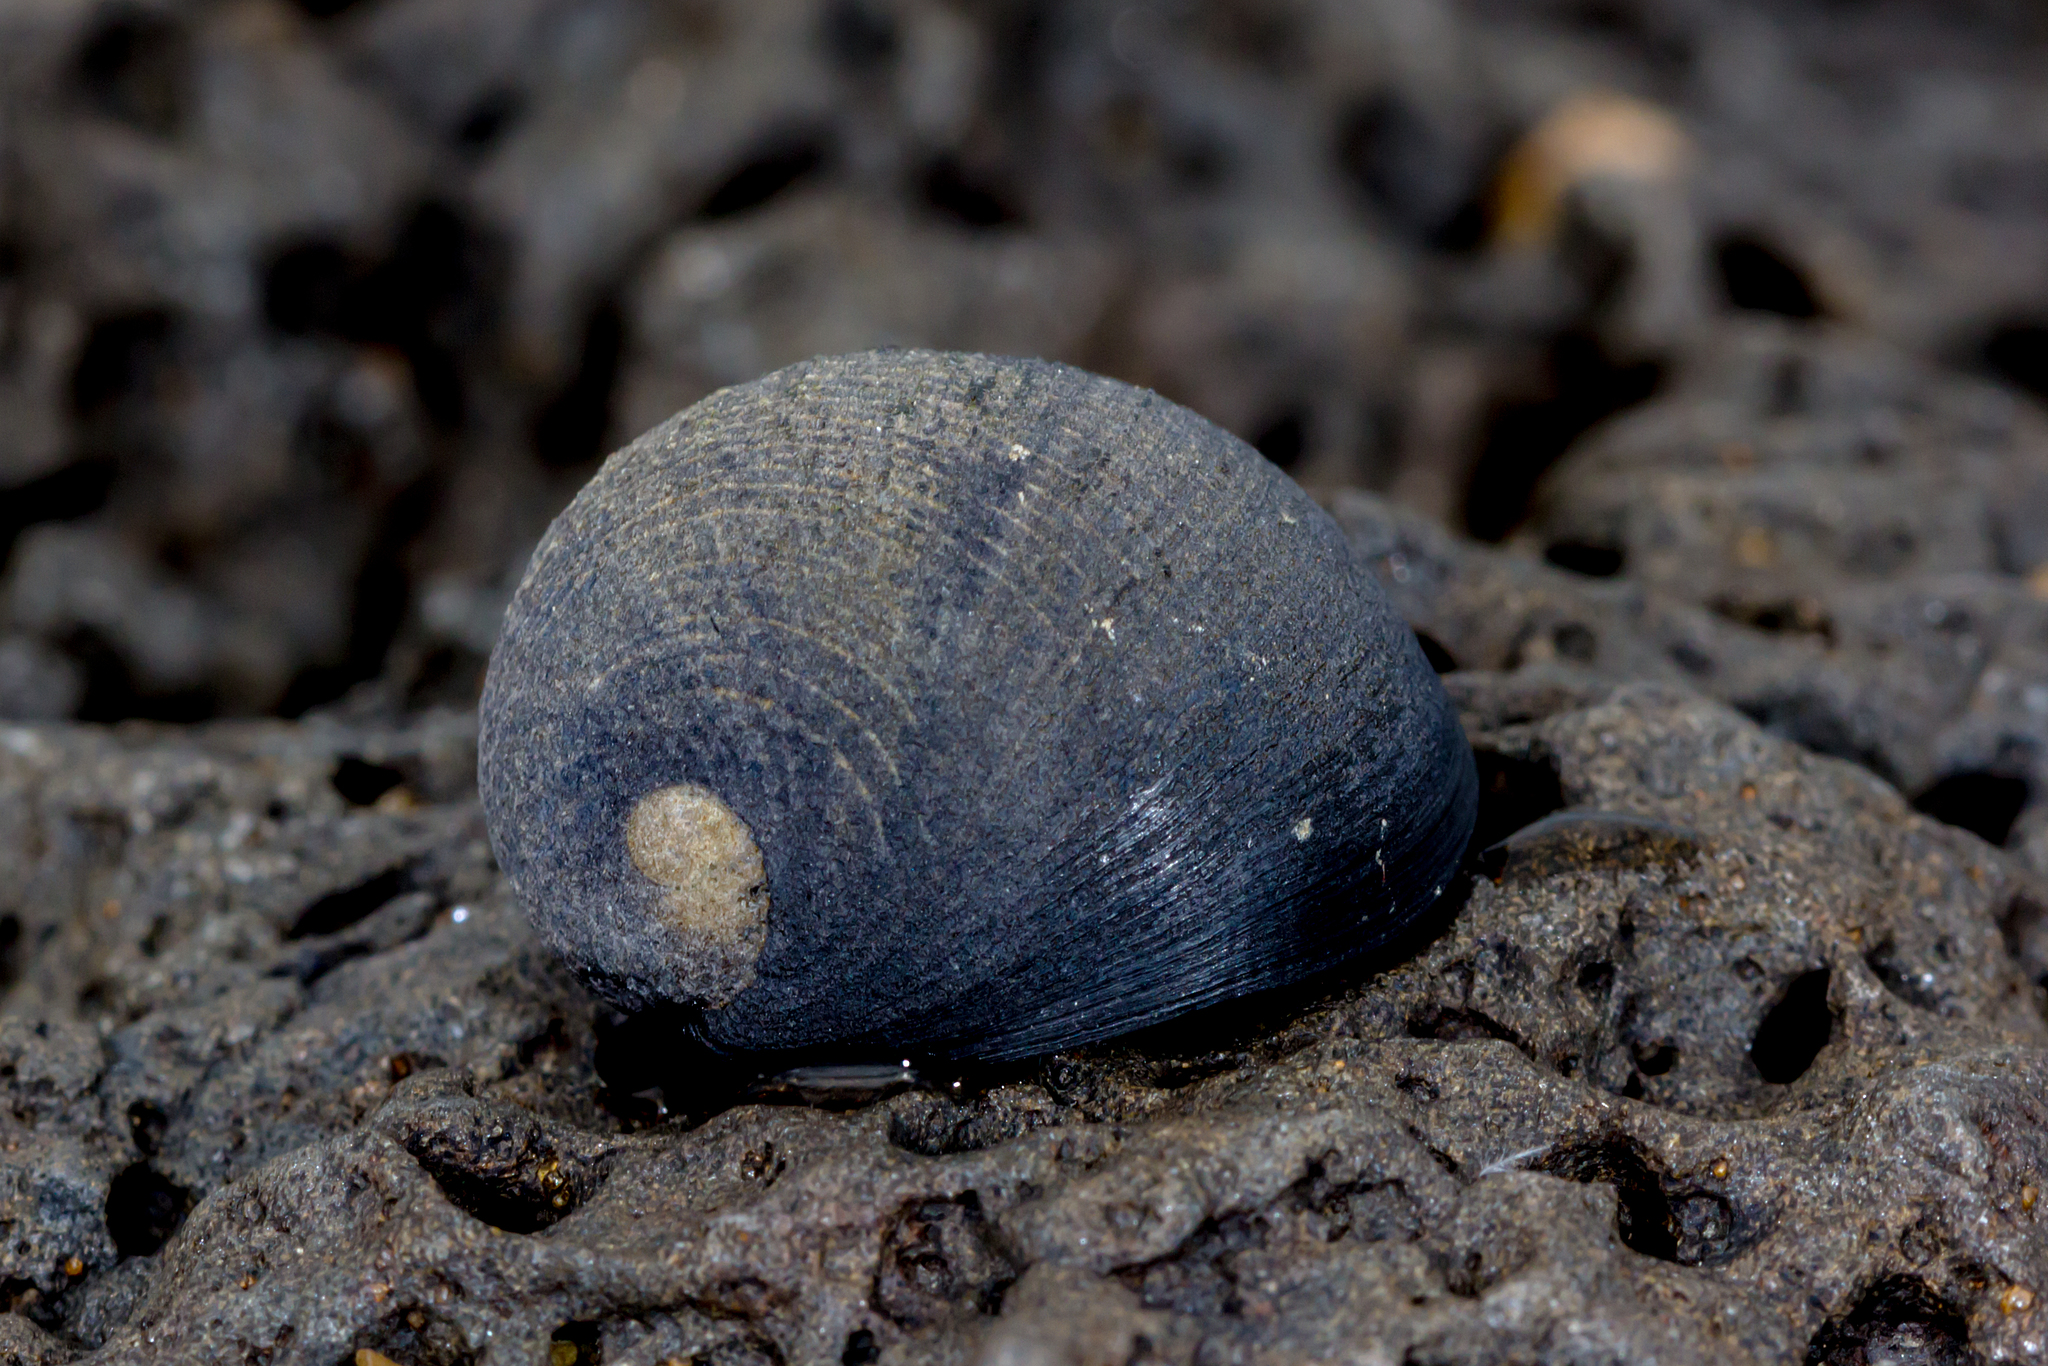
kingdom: Animalia
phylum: Mollusca
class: Gastropoda
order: Cycloneritida
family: Neritidae
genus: Nerita
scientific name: Nerita atramentosa
